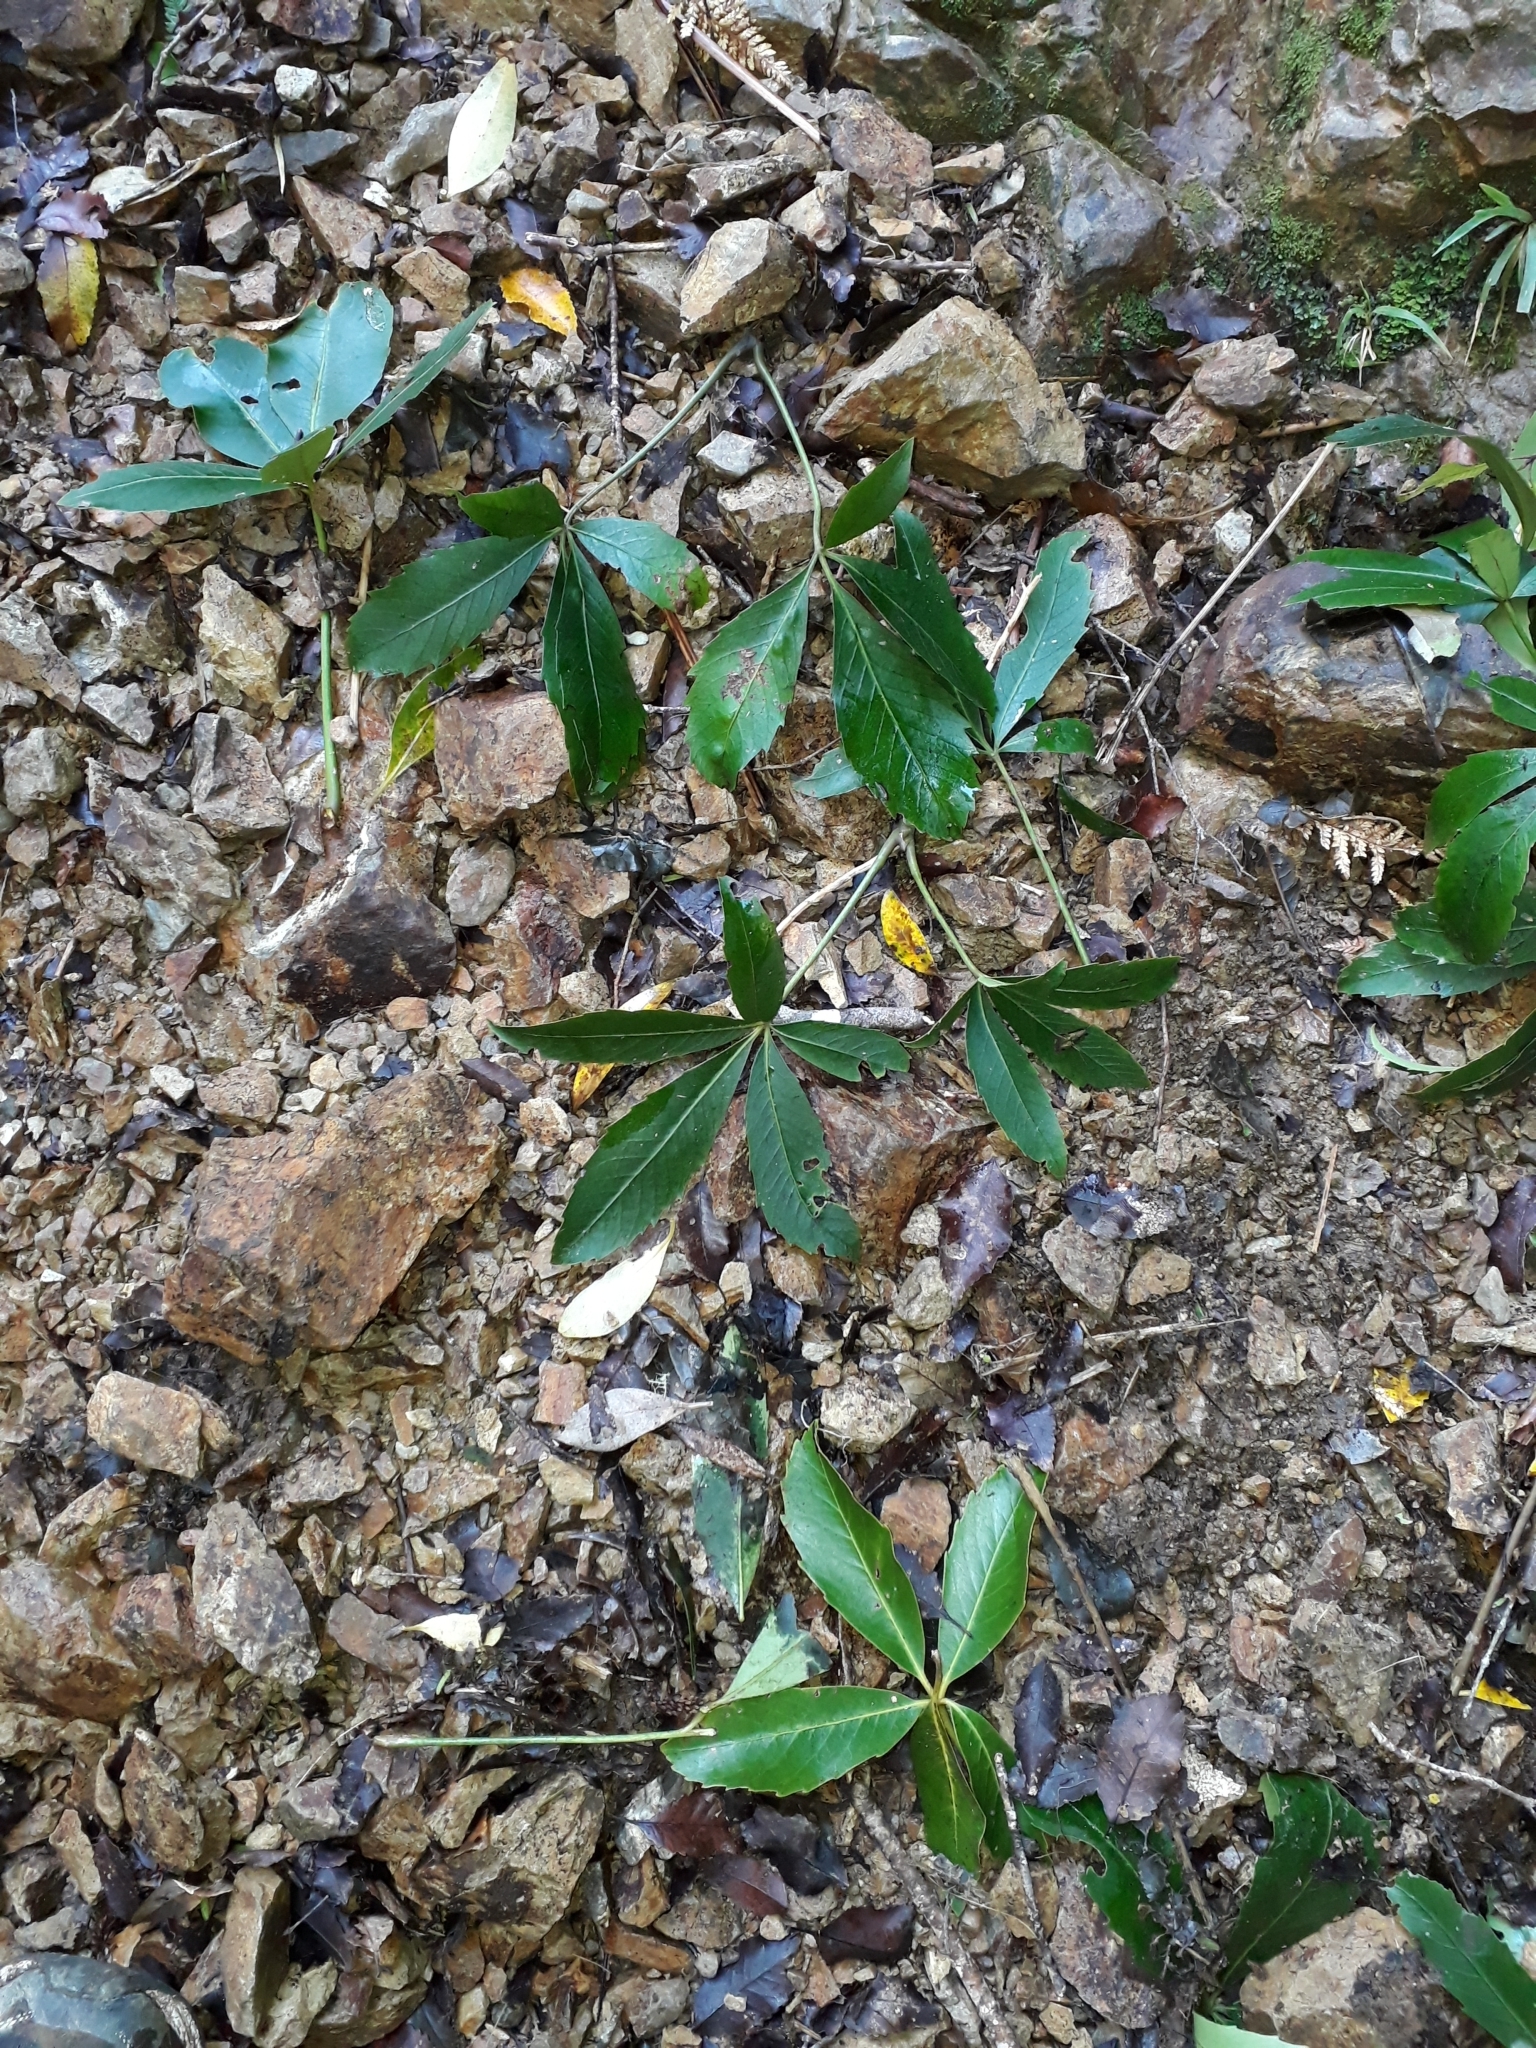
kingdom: Plantae
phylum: Tracheophyta
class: Magnoliopsida
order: Apiales
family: Araliaceae
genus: Neopanax
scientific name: Neopanax colensoi
